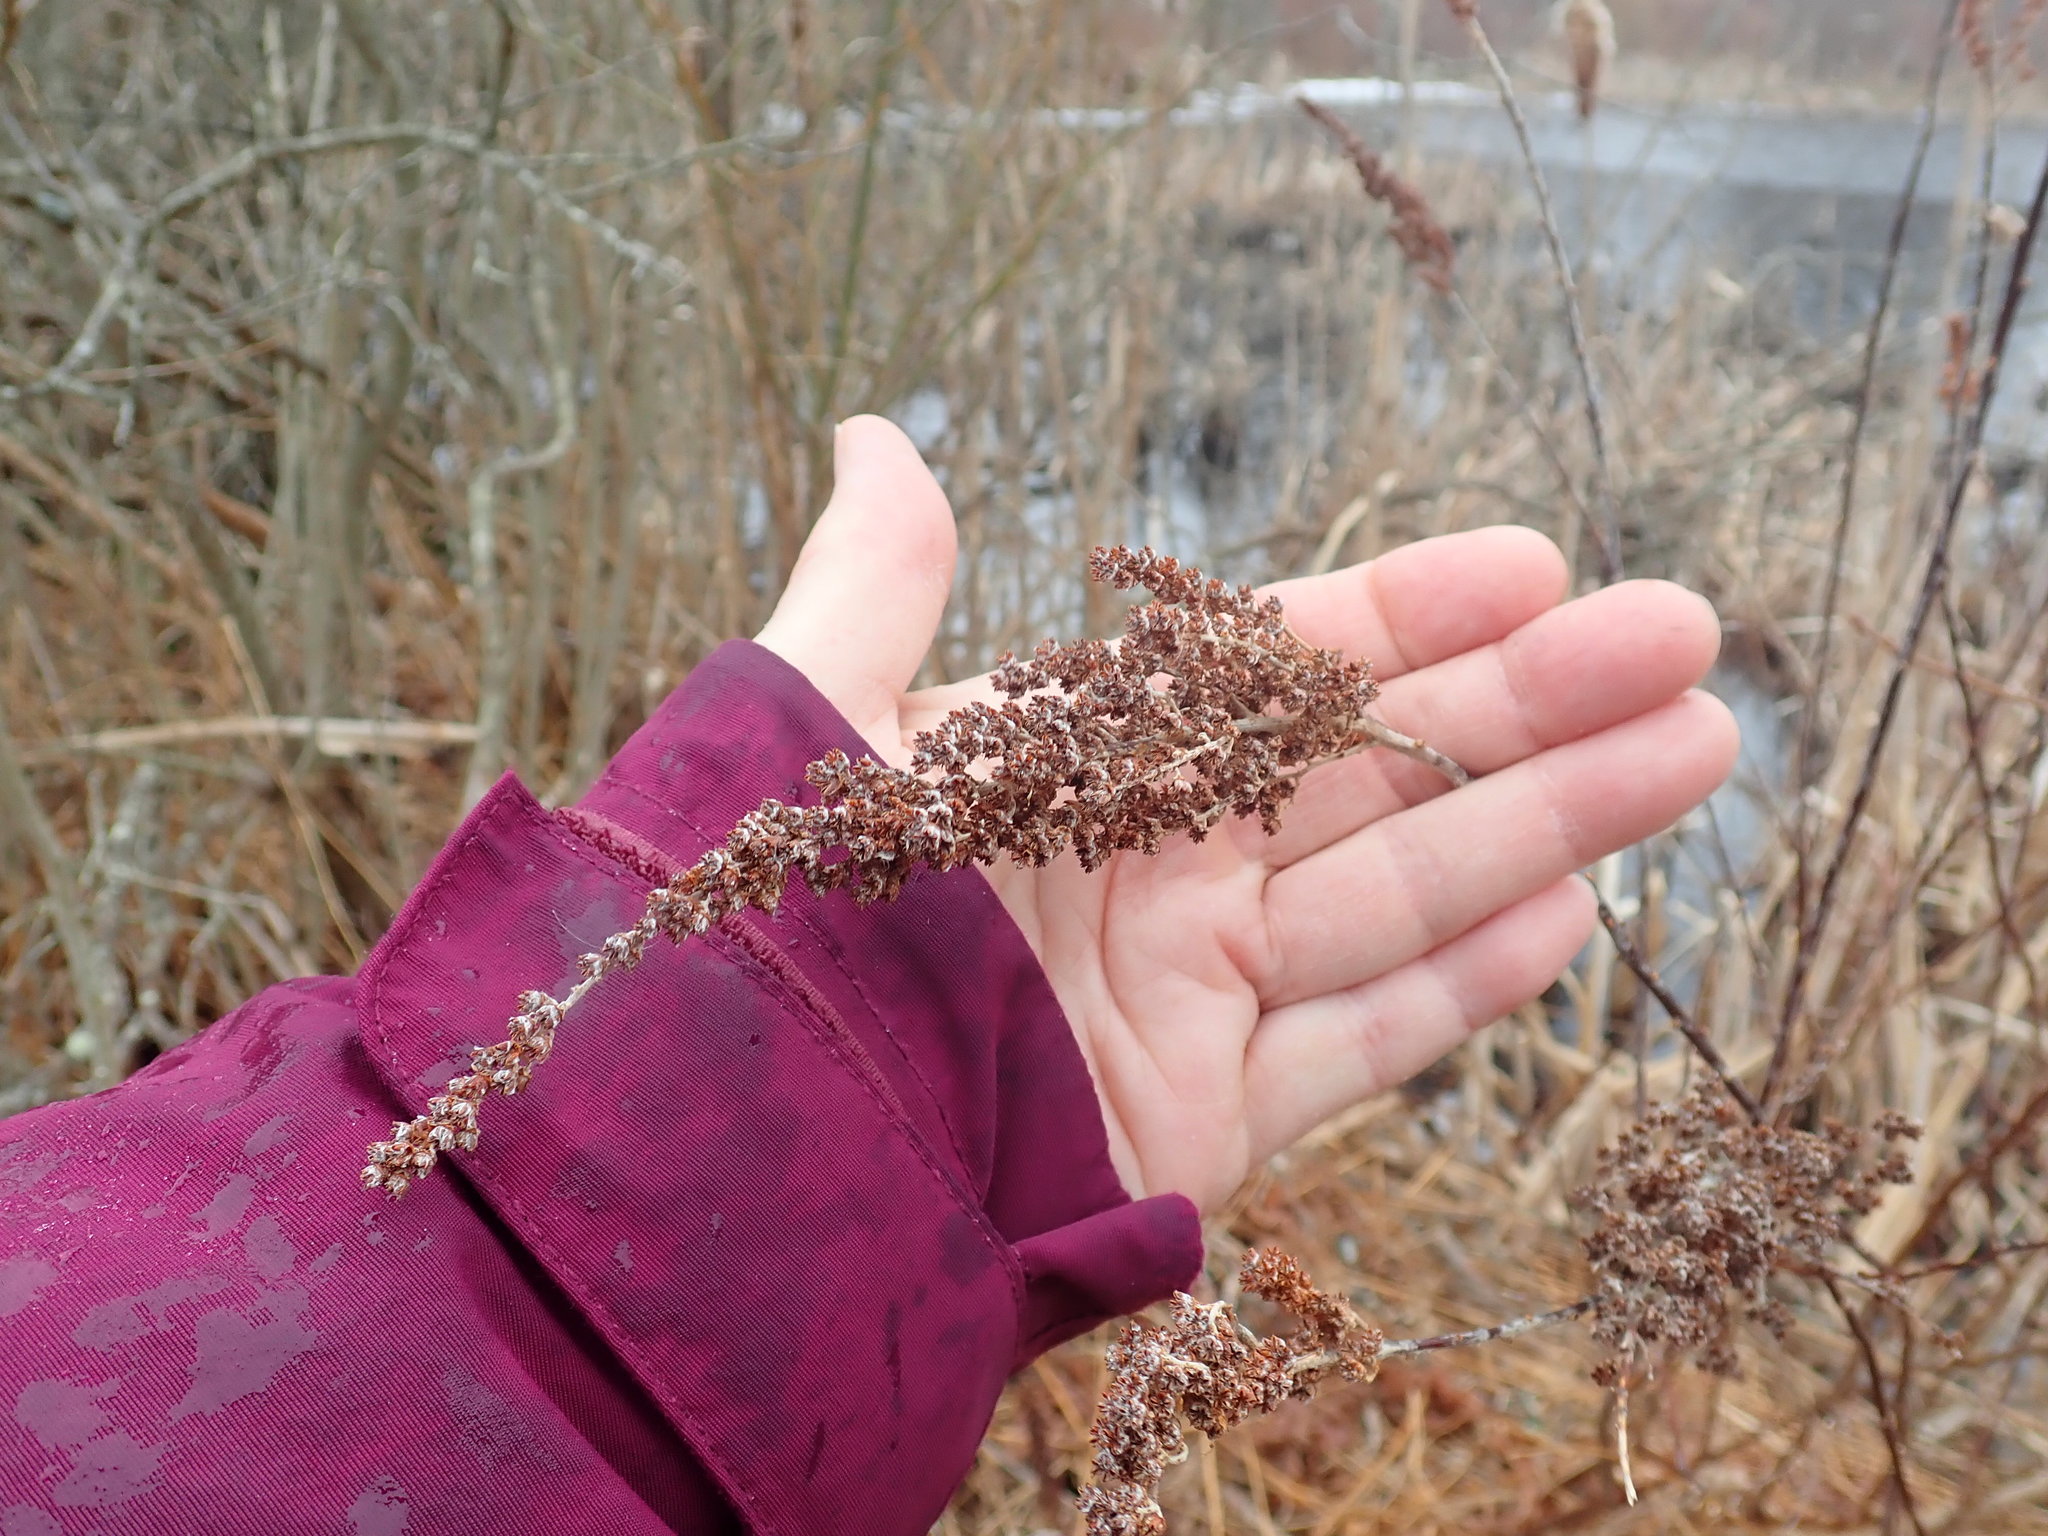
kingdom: Plantae
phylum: Tracheophyta
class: Magnoliopsida
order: Rosales
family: Rosaceae
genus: Spiraea
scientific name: Spiraea tomentosa
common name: Hardhack
